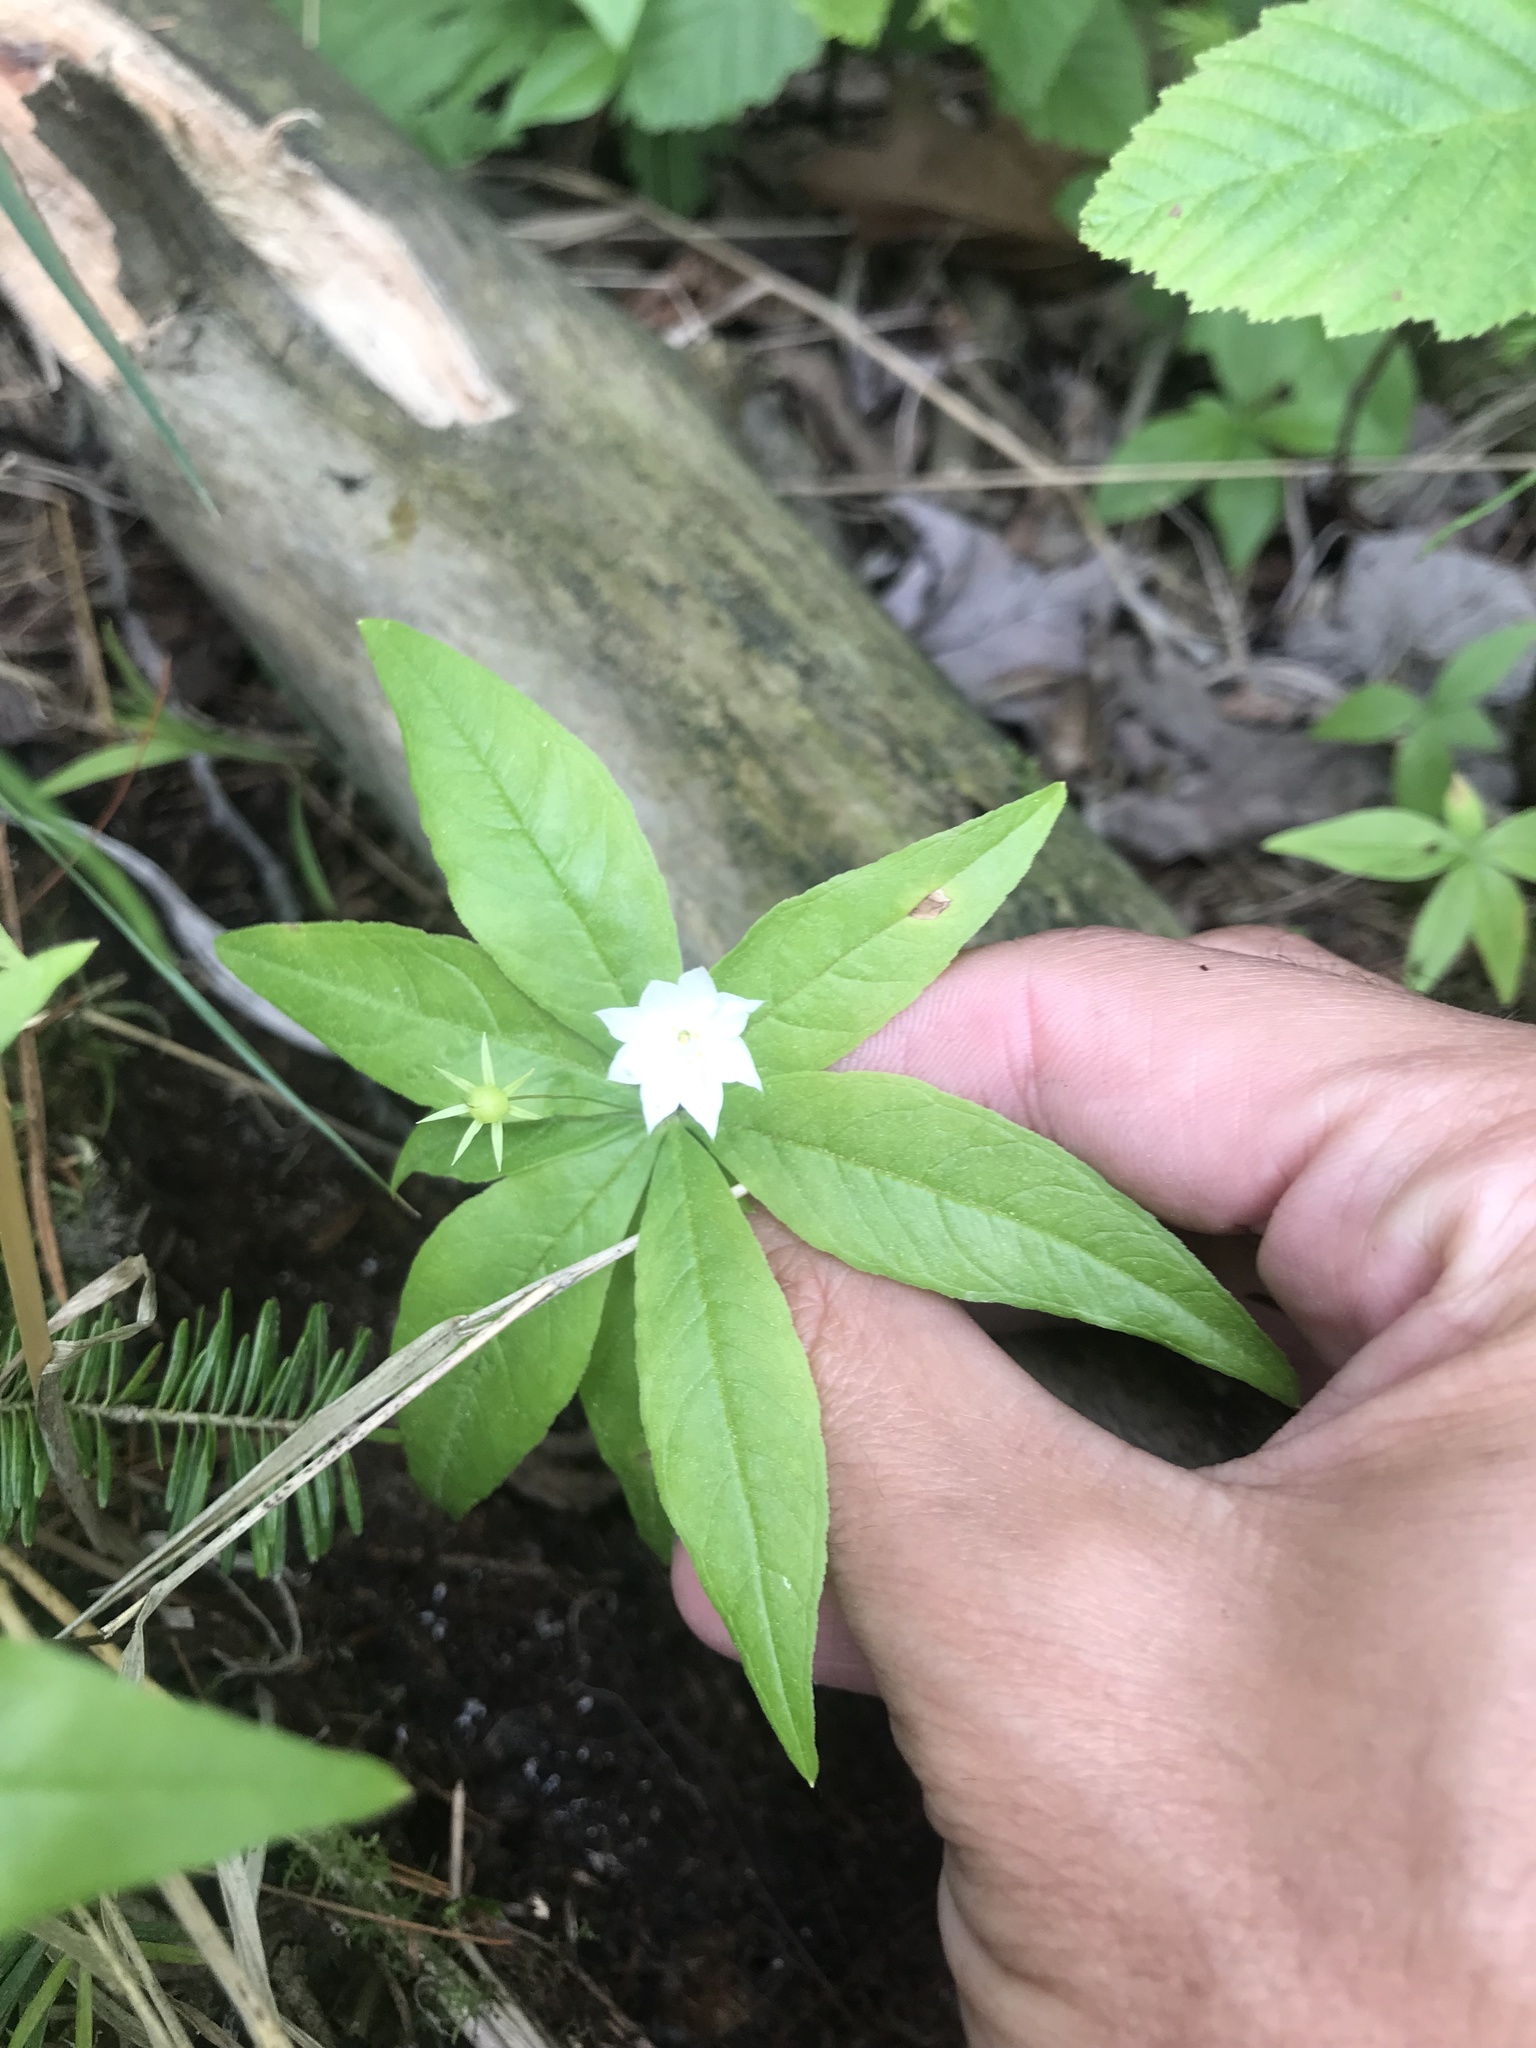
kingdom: Plantae
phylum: Tracheophyta
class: Magnoliopsida
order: Ericales
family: Primulaceae
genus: Lysimachia
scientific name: Lysimachia borealis
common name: American starflower
